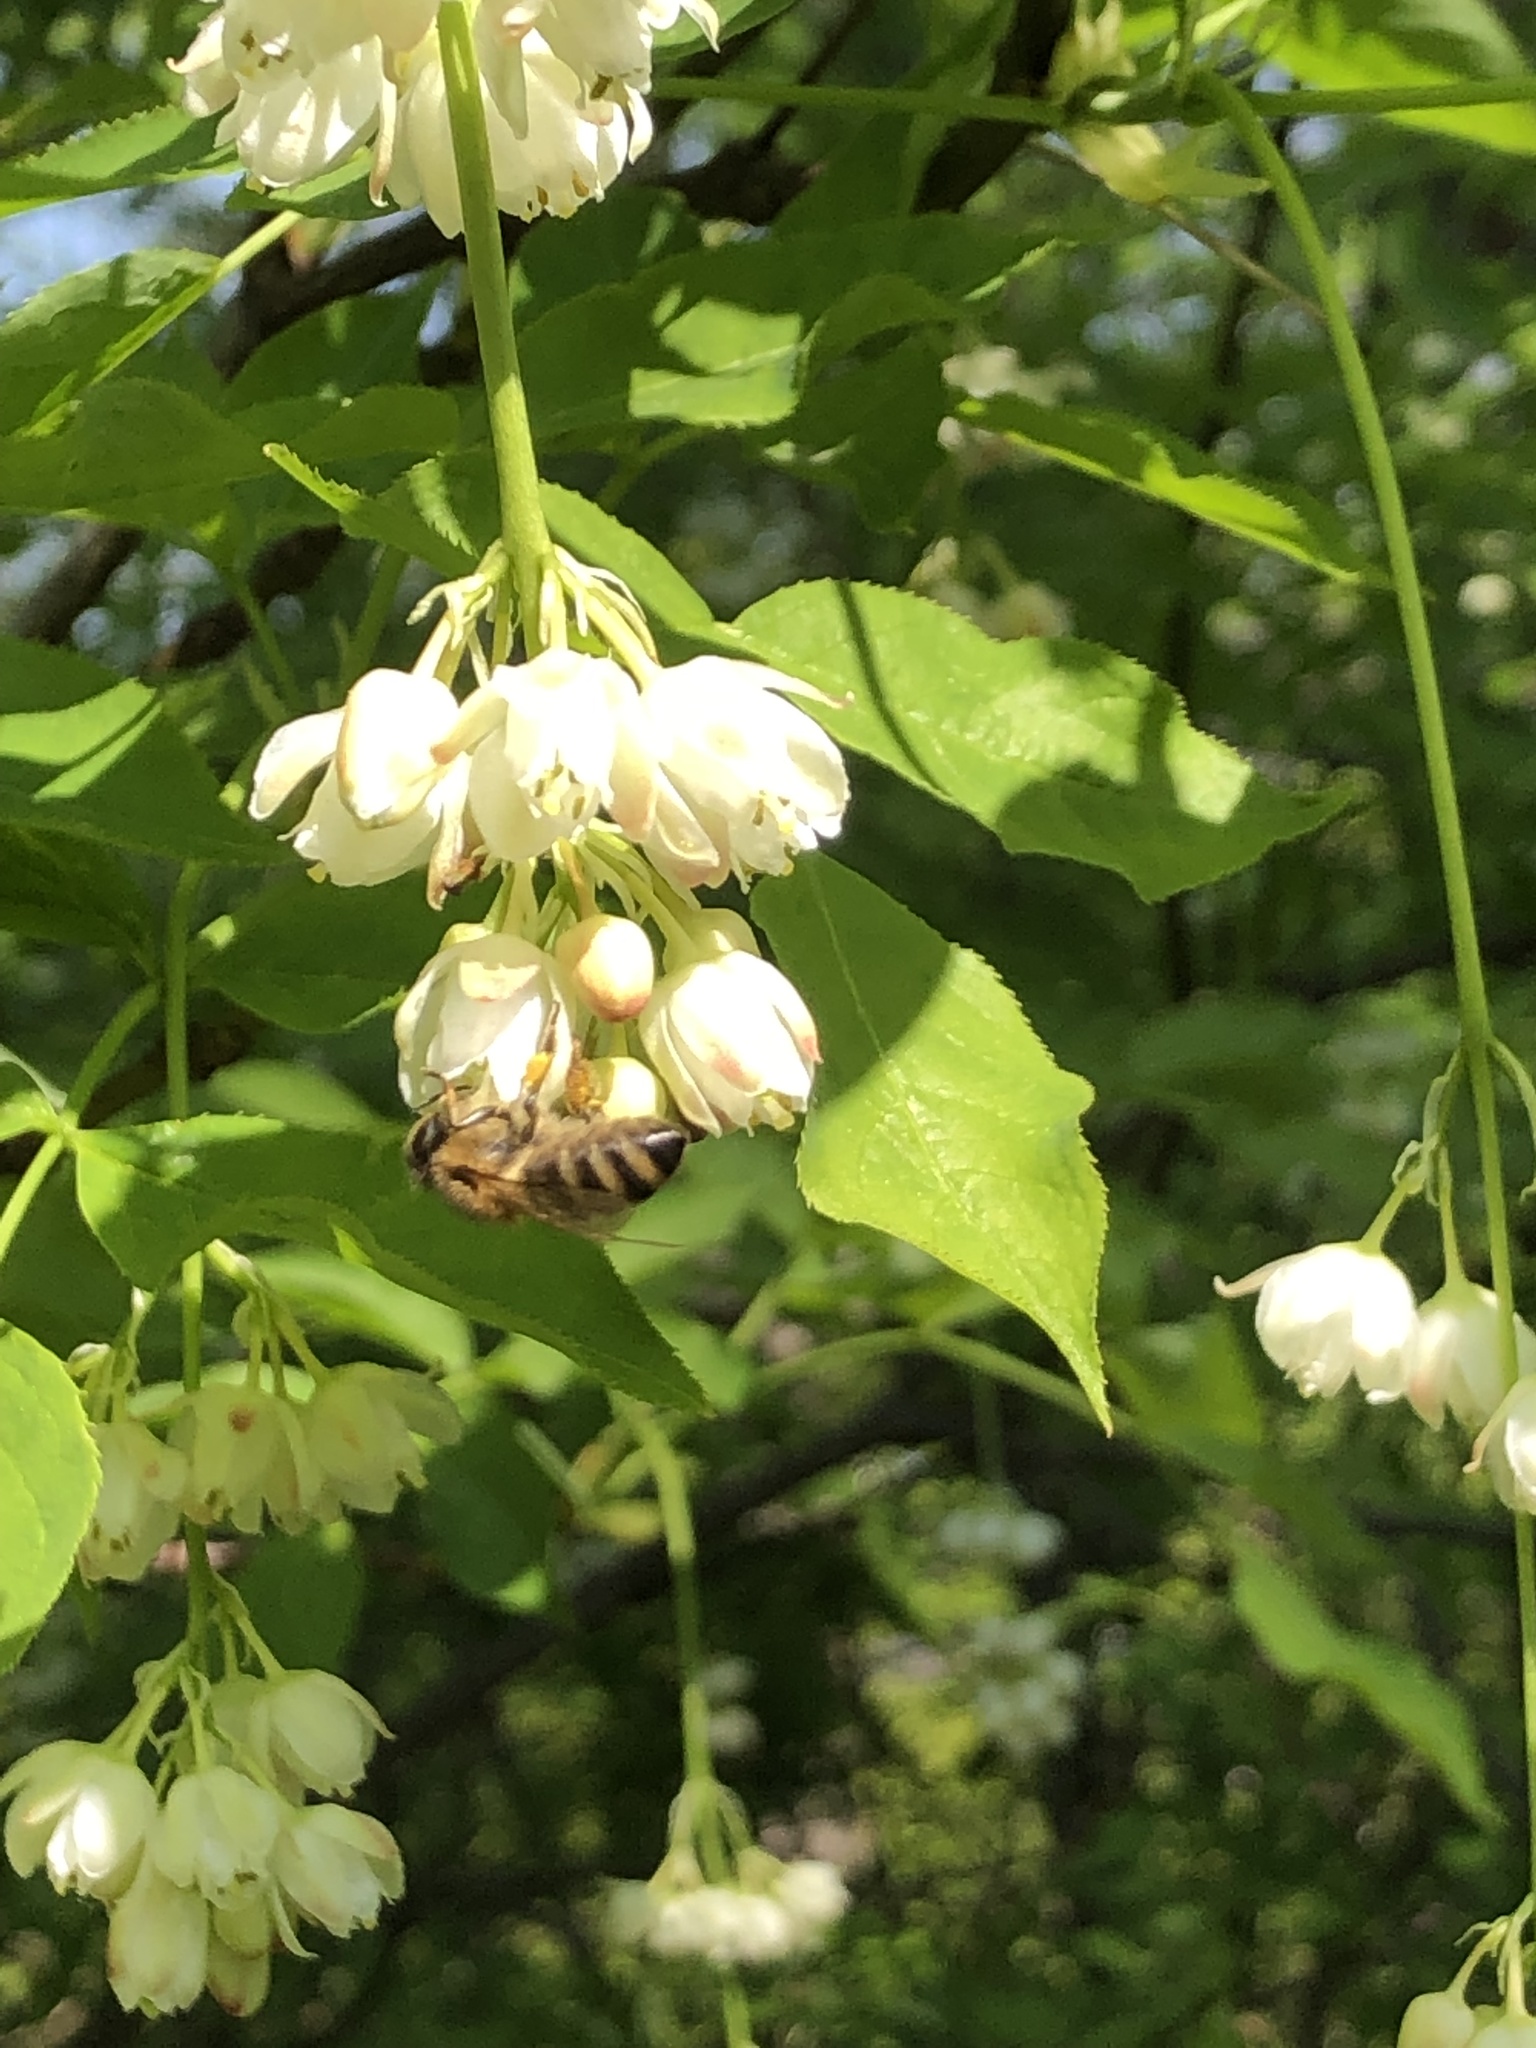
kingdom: Animalia
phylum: Arthropoda
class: Insecta
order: Hymenoptera
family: Apidae
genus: Apis
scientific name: Apis mellifera
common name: Honey bee
